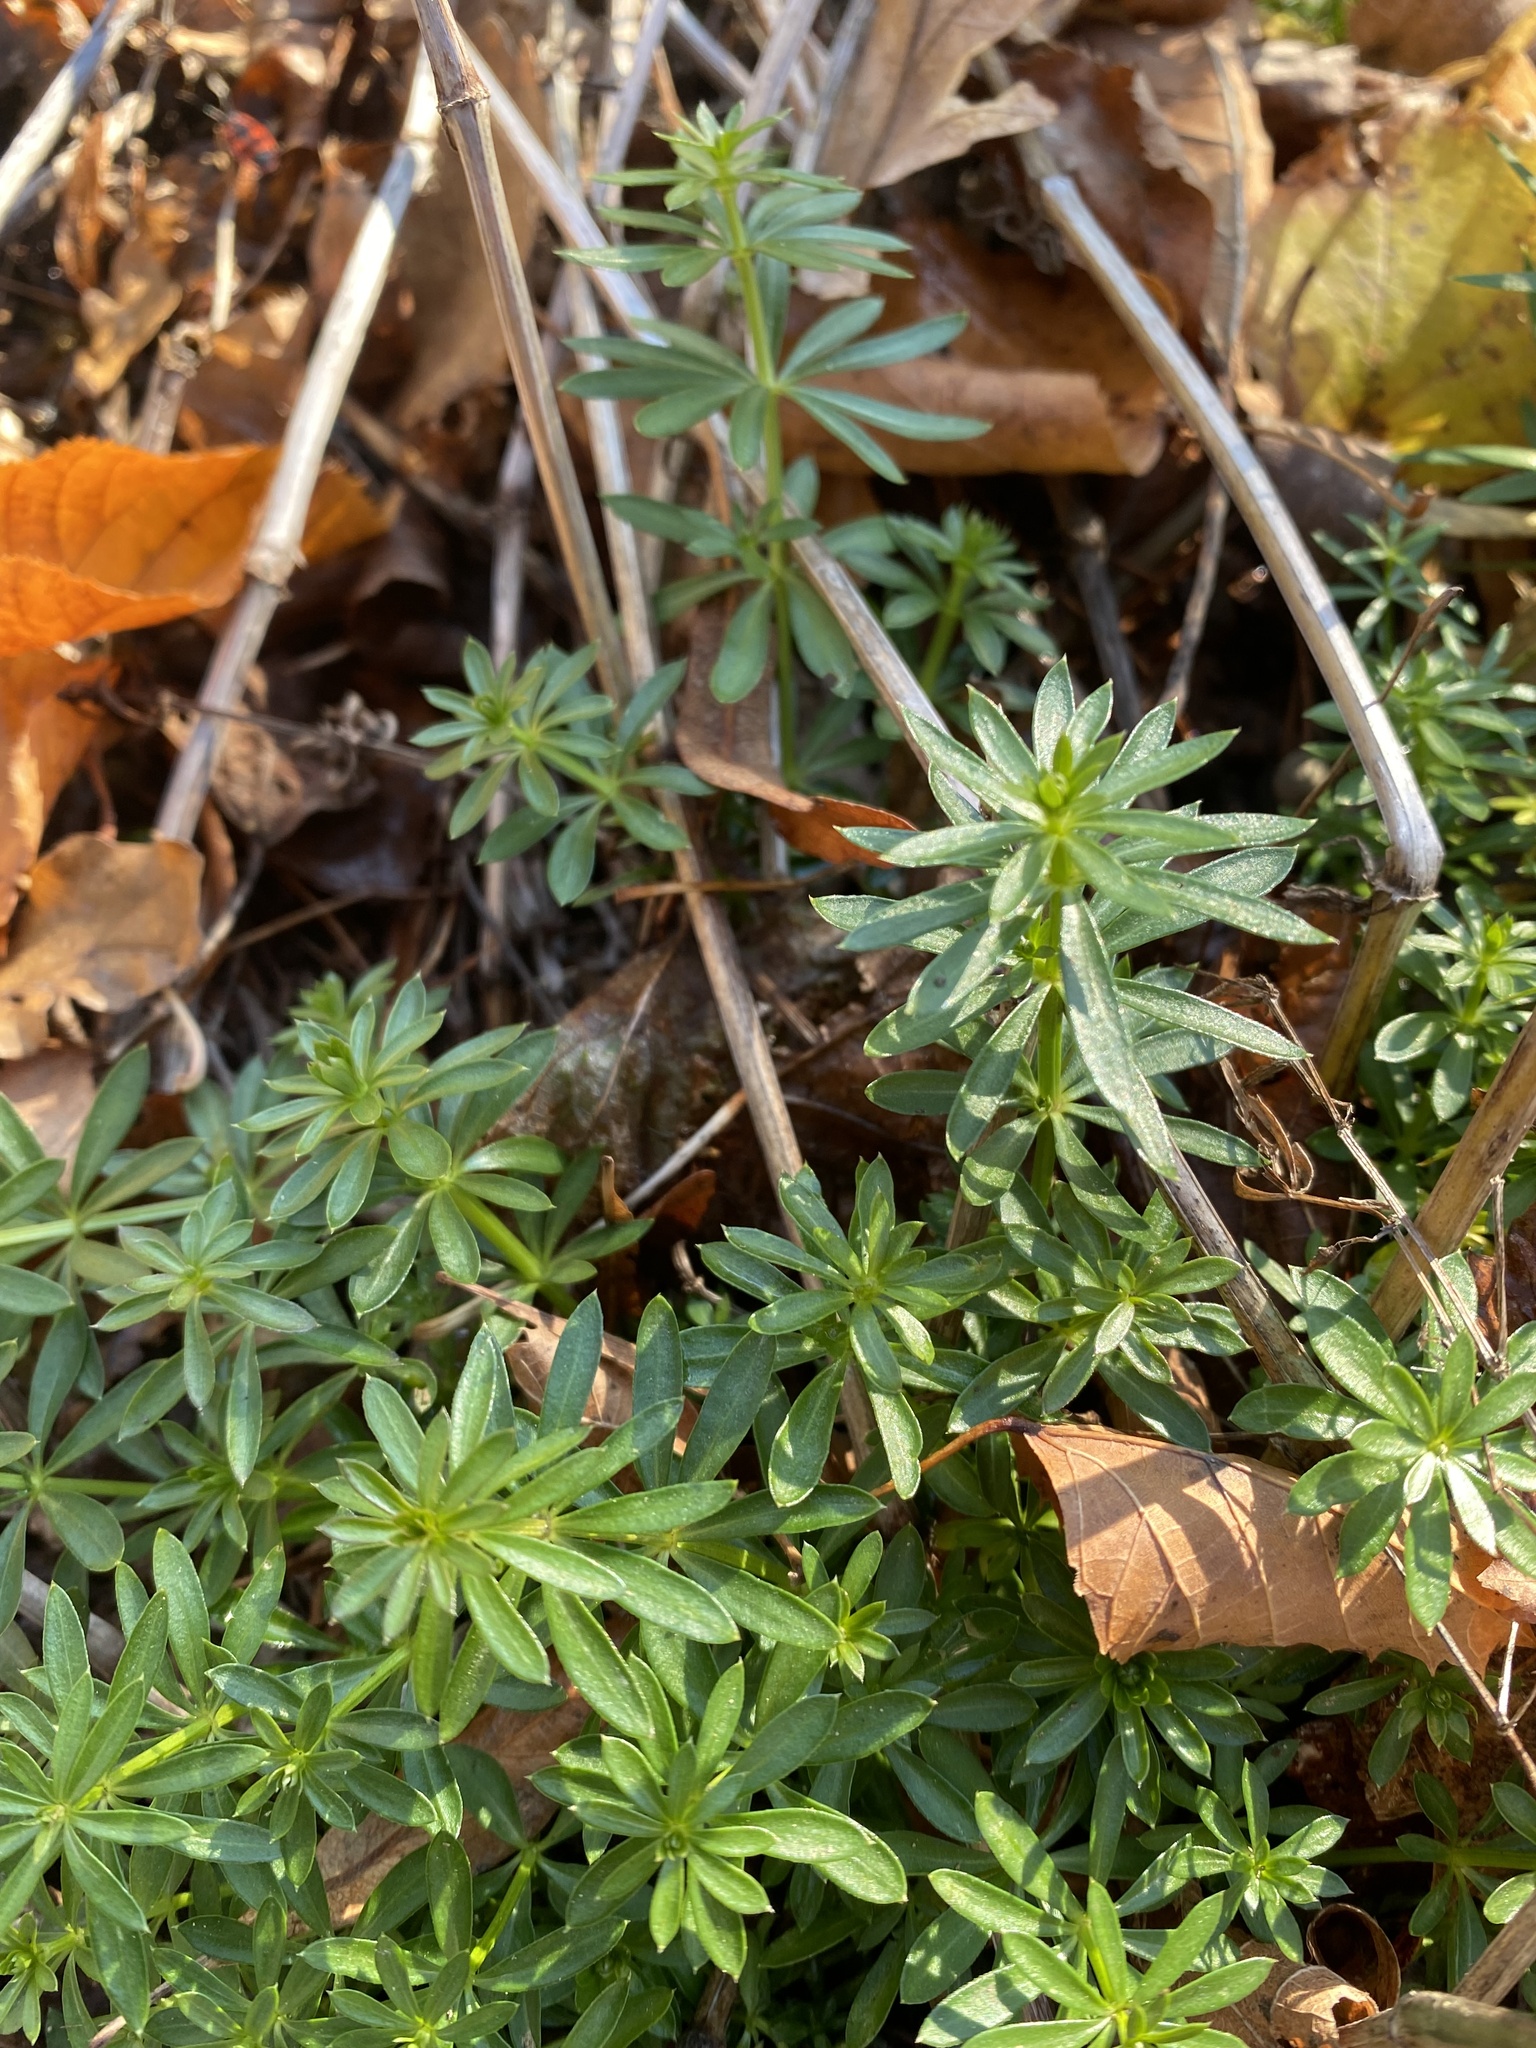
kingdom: Plantae
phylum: Tracheophyta
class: Magnoliopsida
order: Gentianales
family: Rubiaceae
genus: Galium
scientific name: Galium mollugo
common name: Hedge bedstraw
